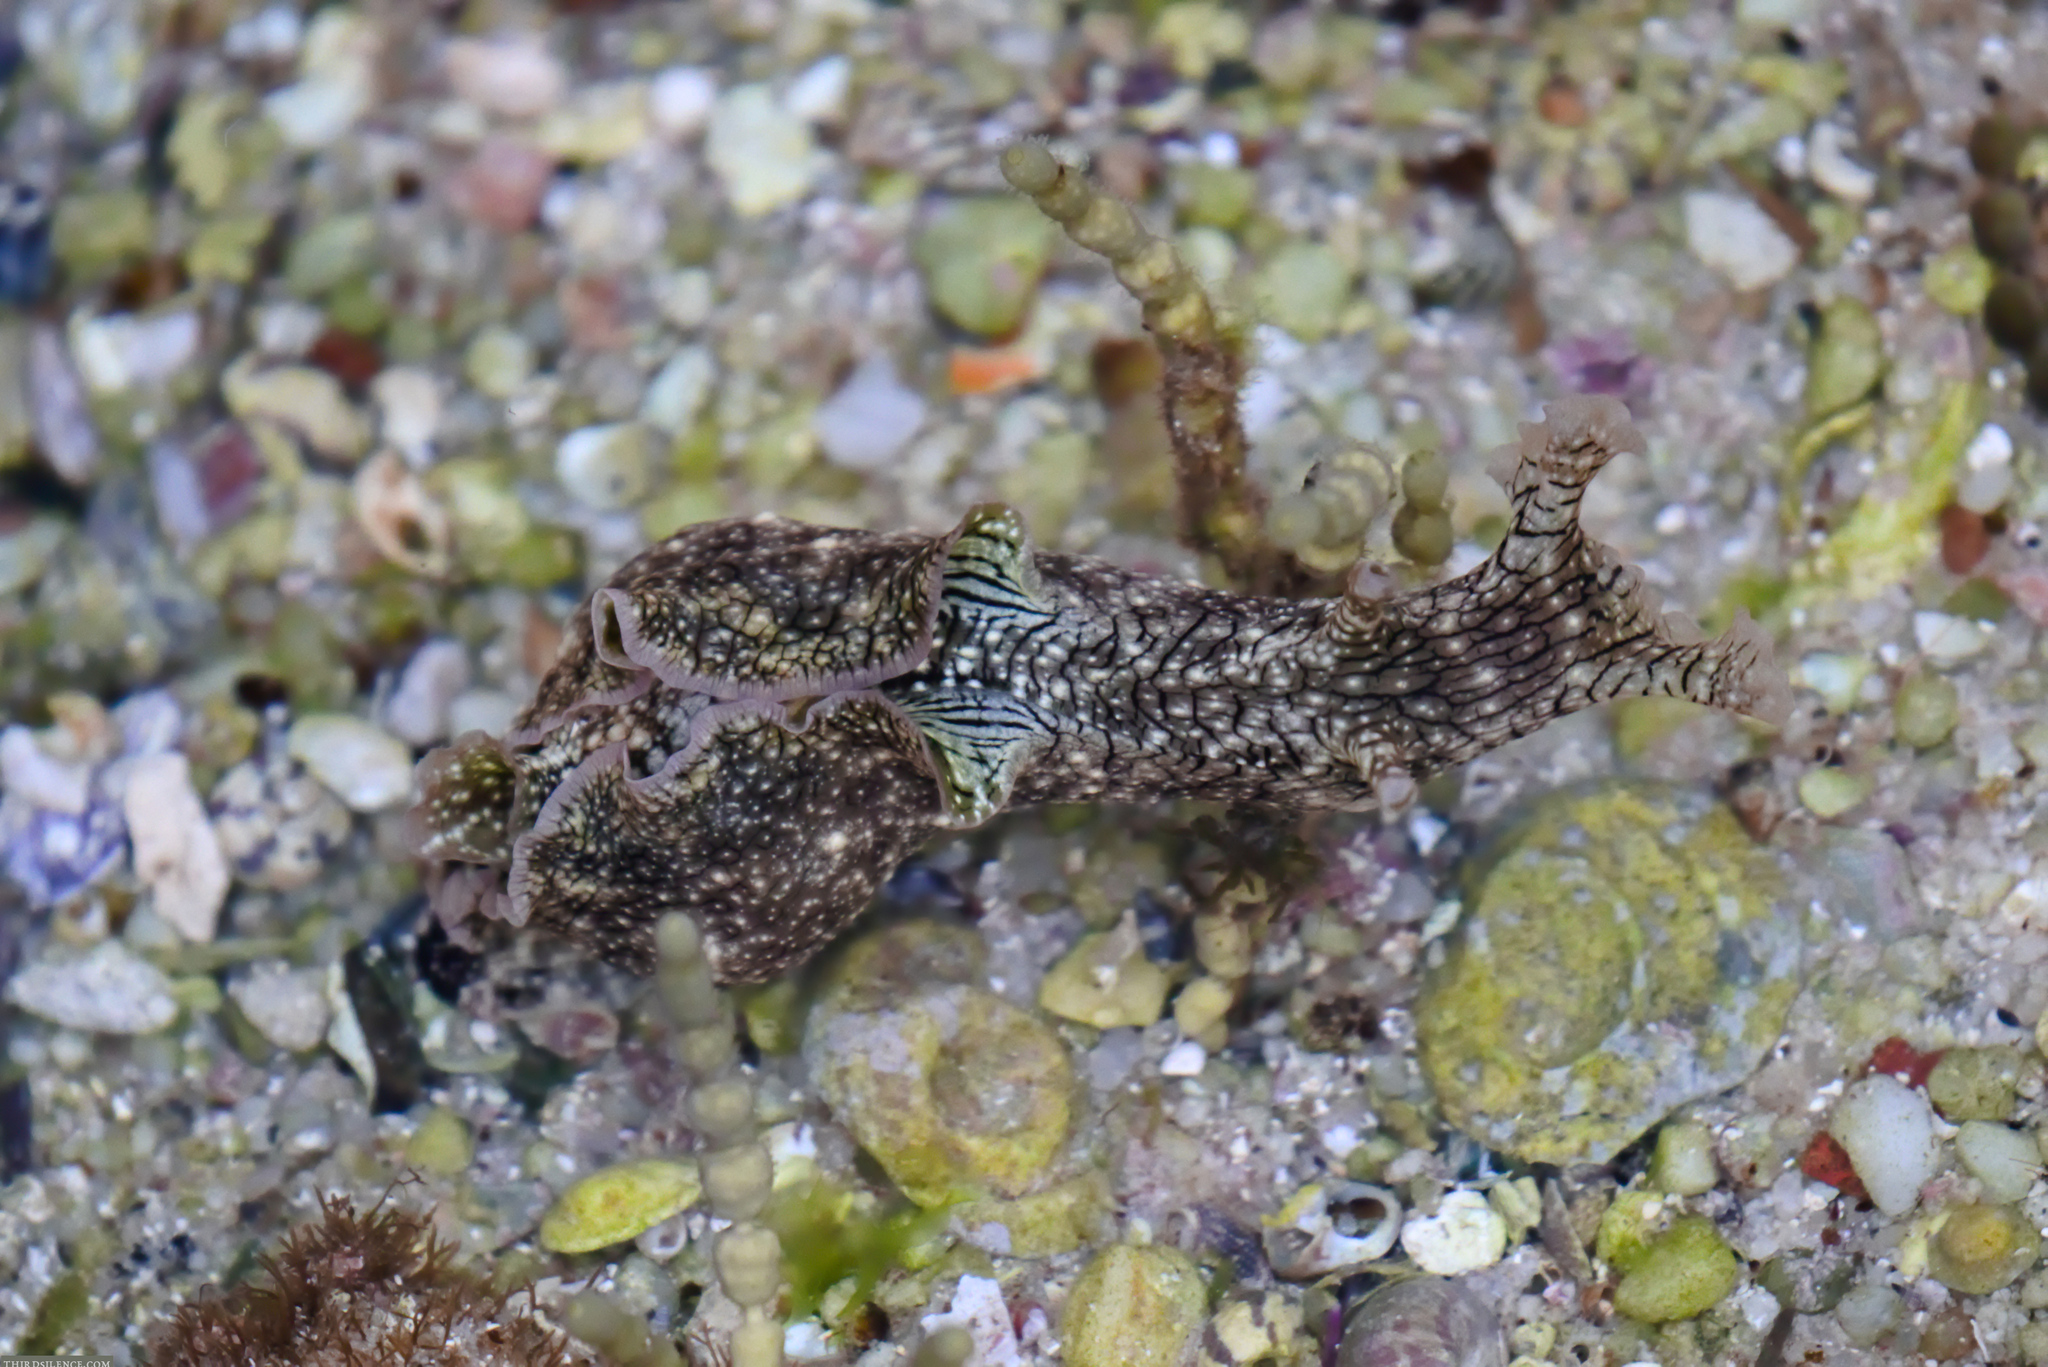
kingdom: Animalia
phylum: Mollusca
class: Gastropoda
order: Aplysiida
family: Aplysiidae
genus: Aplysia
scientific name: Aplysia argus
